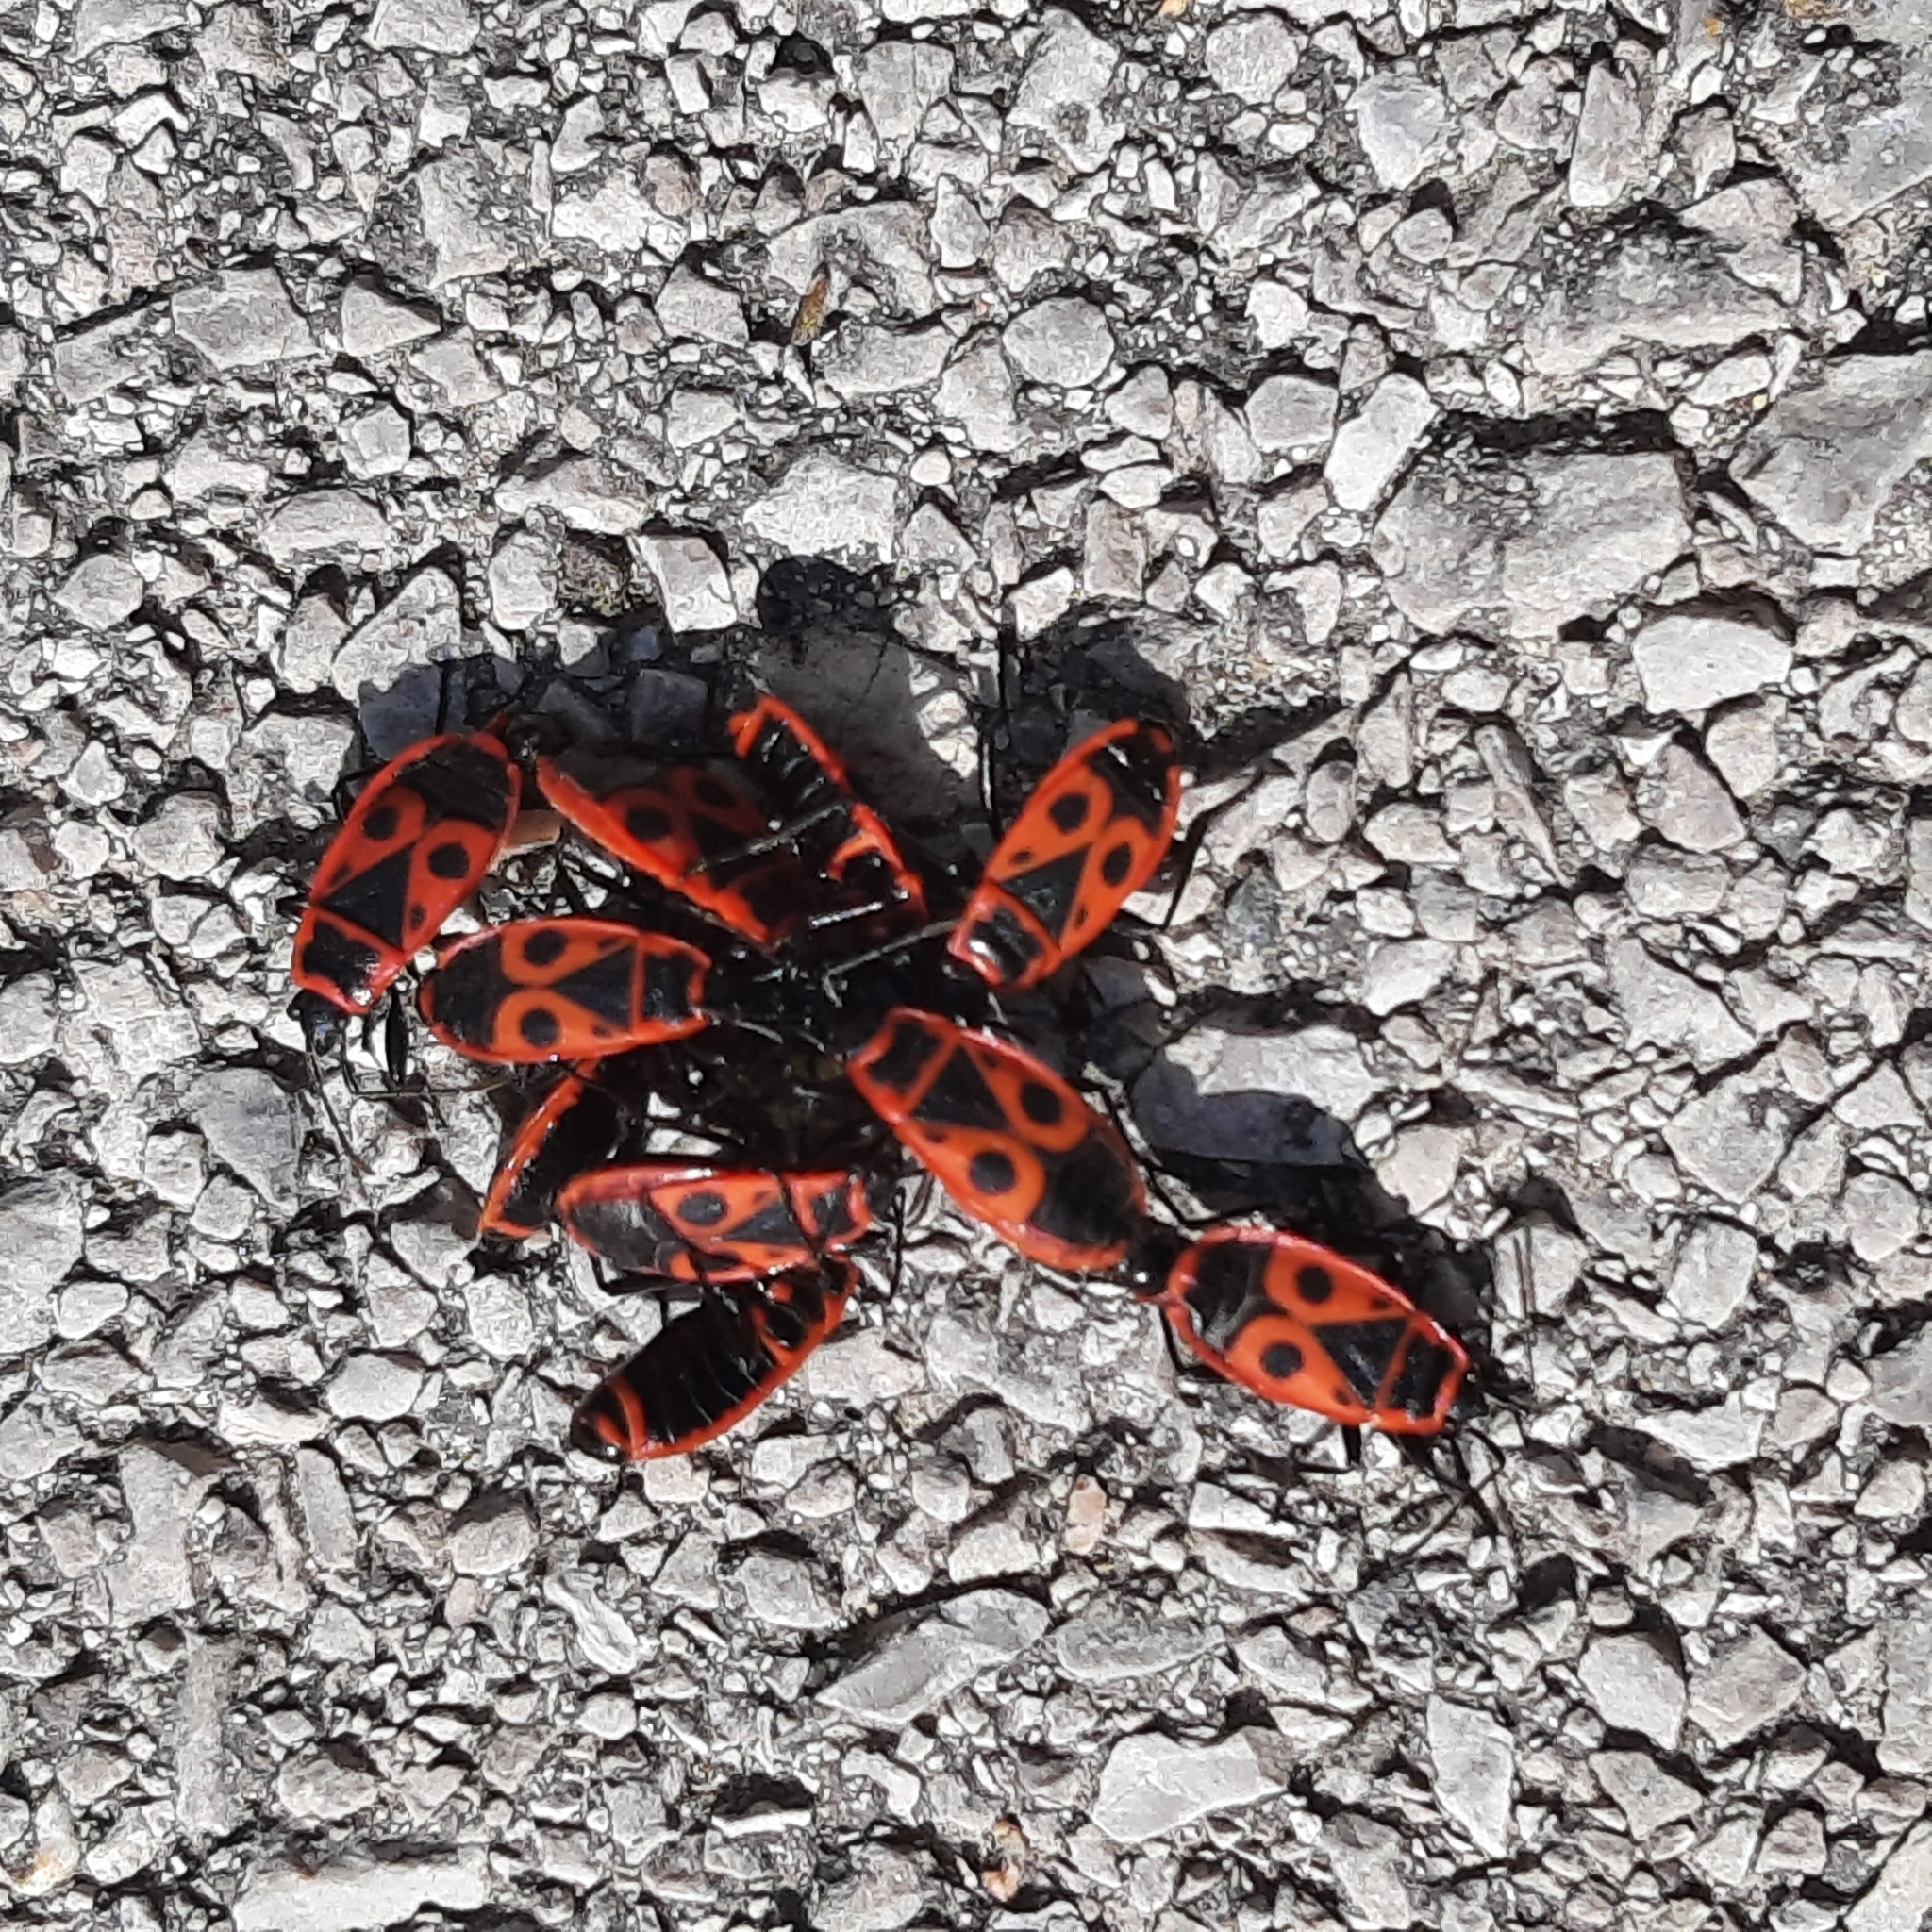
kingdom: Animalia
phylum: Arthropoda
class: Insecta
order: Hemiptera
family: Pyrrhocoridae
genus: Pyrrhocoris
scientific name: Pyrrhocoris apterus
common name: Firebug
